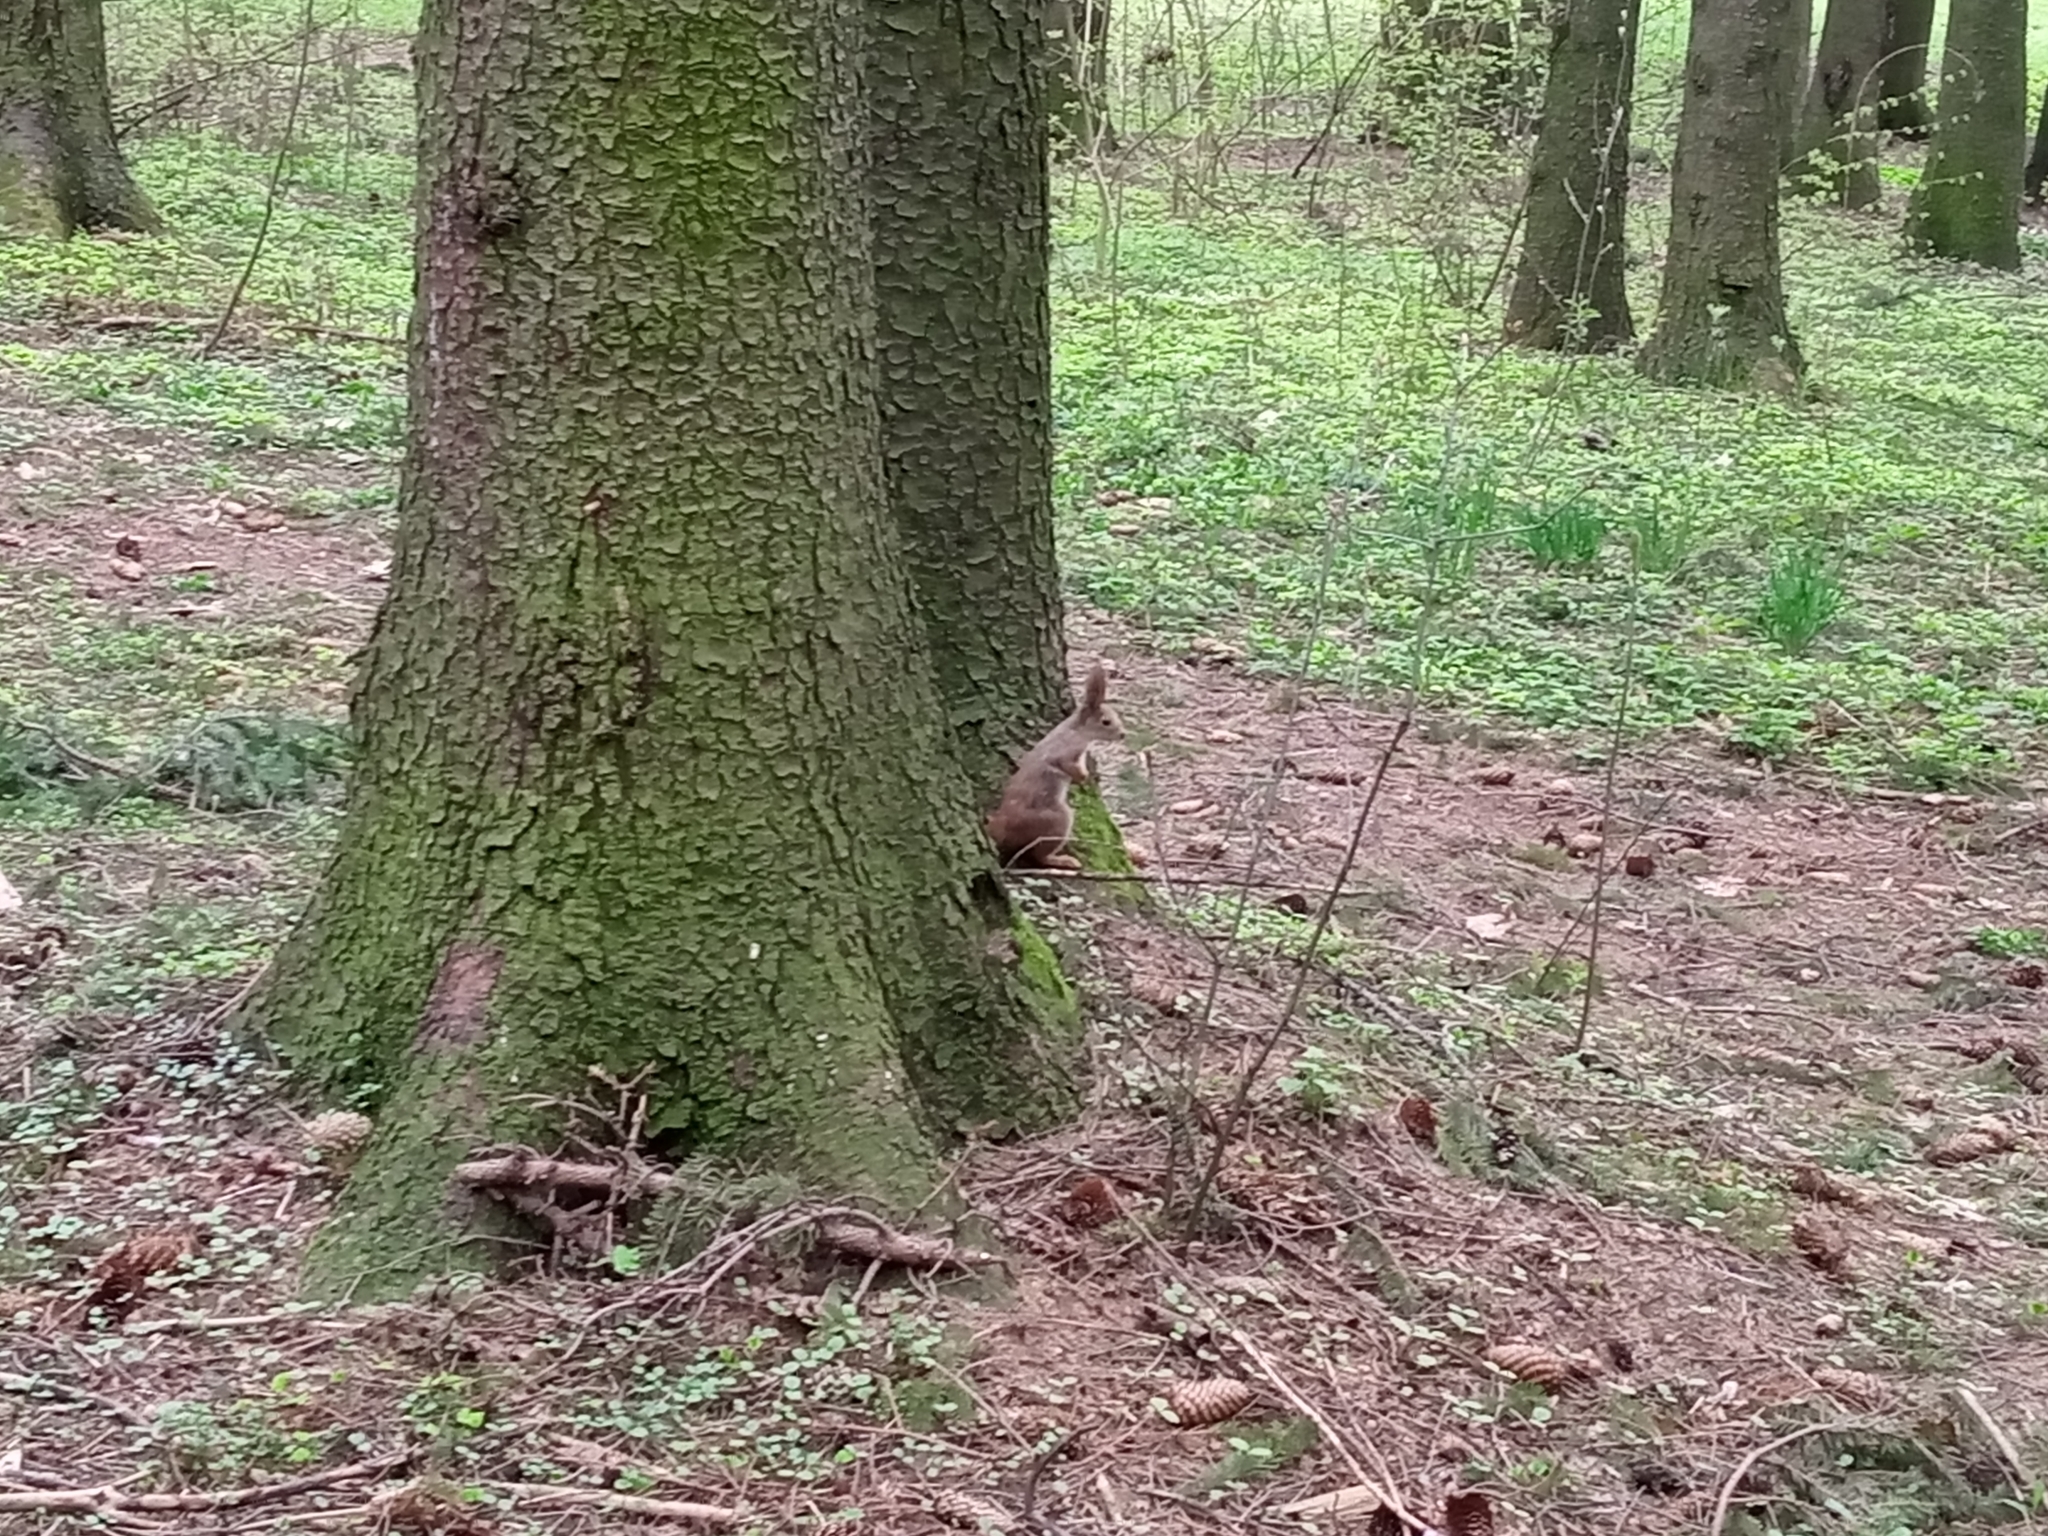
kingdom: Animalia
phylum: Chordata
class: Mammalia
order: Rodentia
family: Sciuridae
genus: Sciurus
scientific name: Sciurus vulgaris
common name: Eurasian red squirrel
